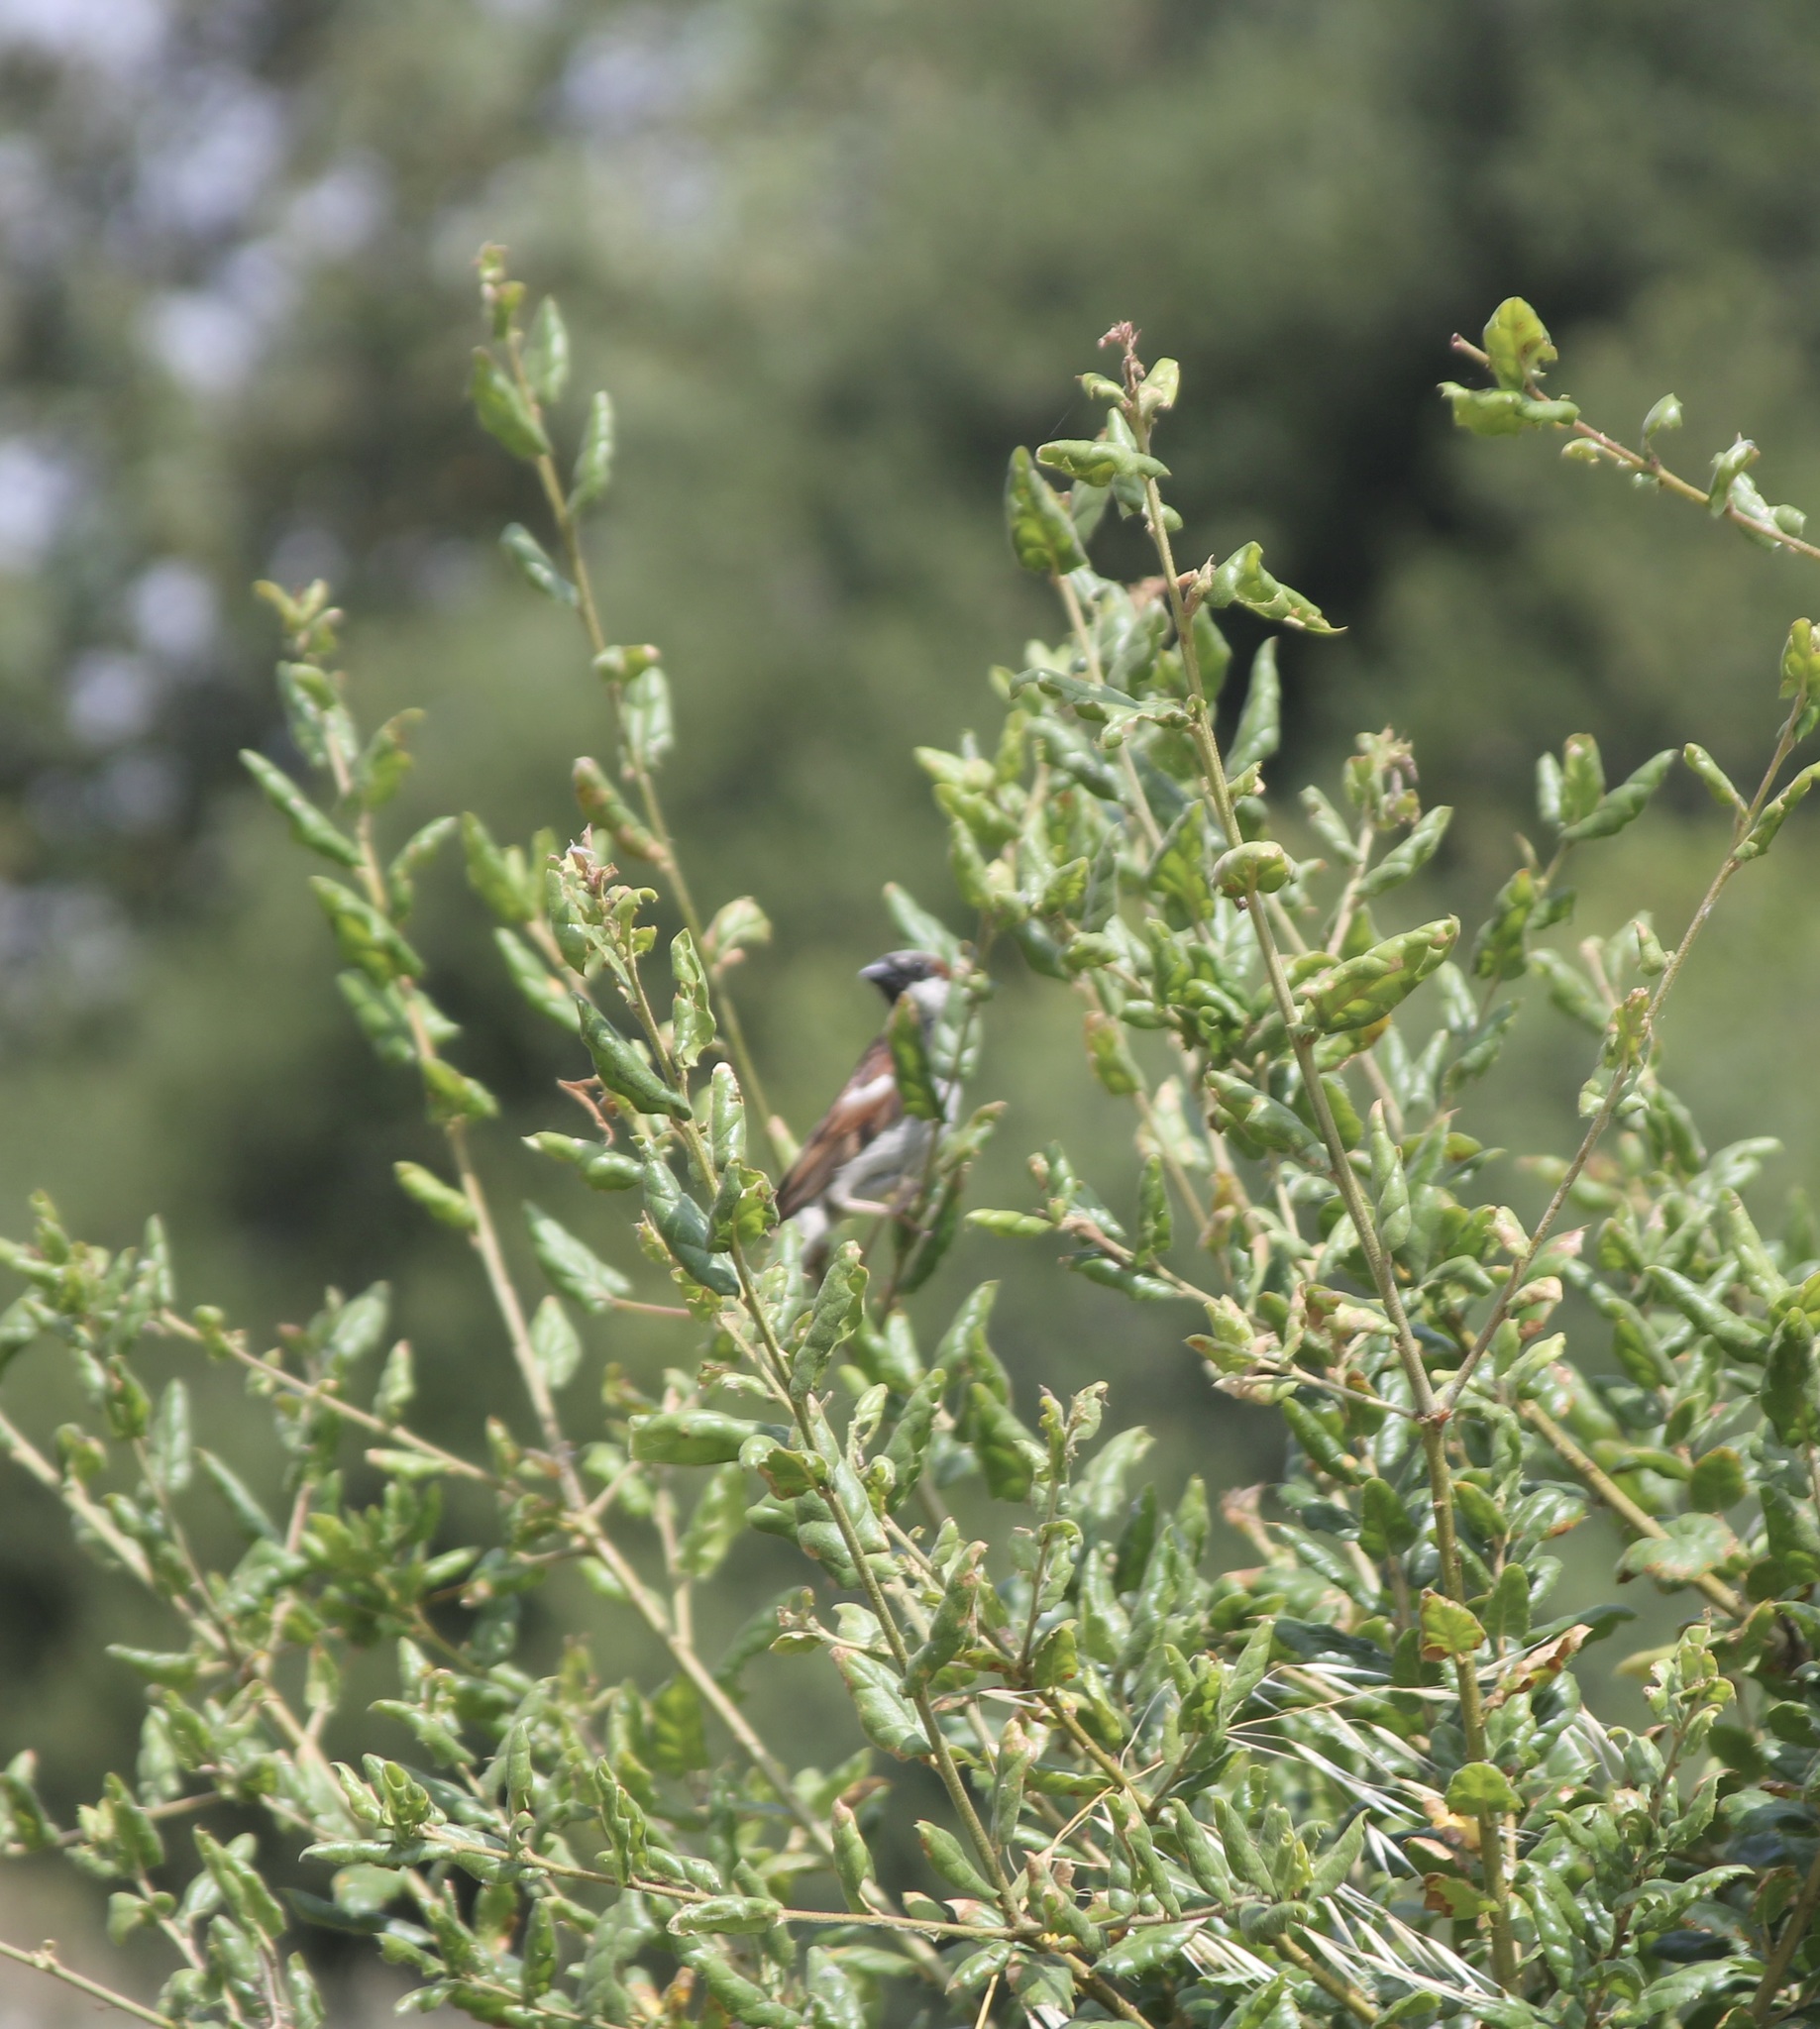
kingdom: Animalia
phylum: Chordata
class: Aves
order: Passeriformes
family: Passeridae
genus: Passer
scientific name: Passer domesticus
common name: House sparrow
